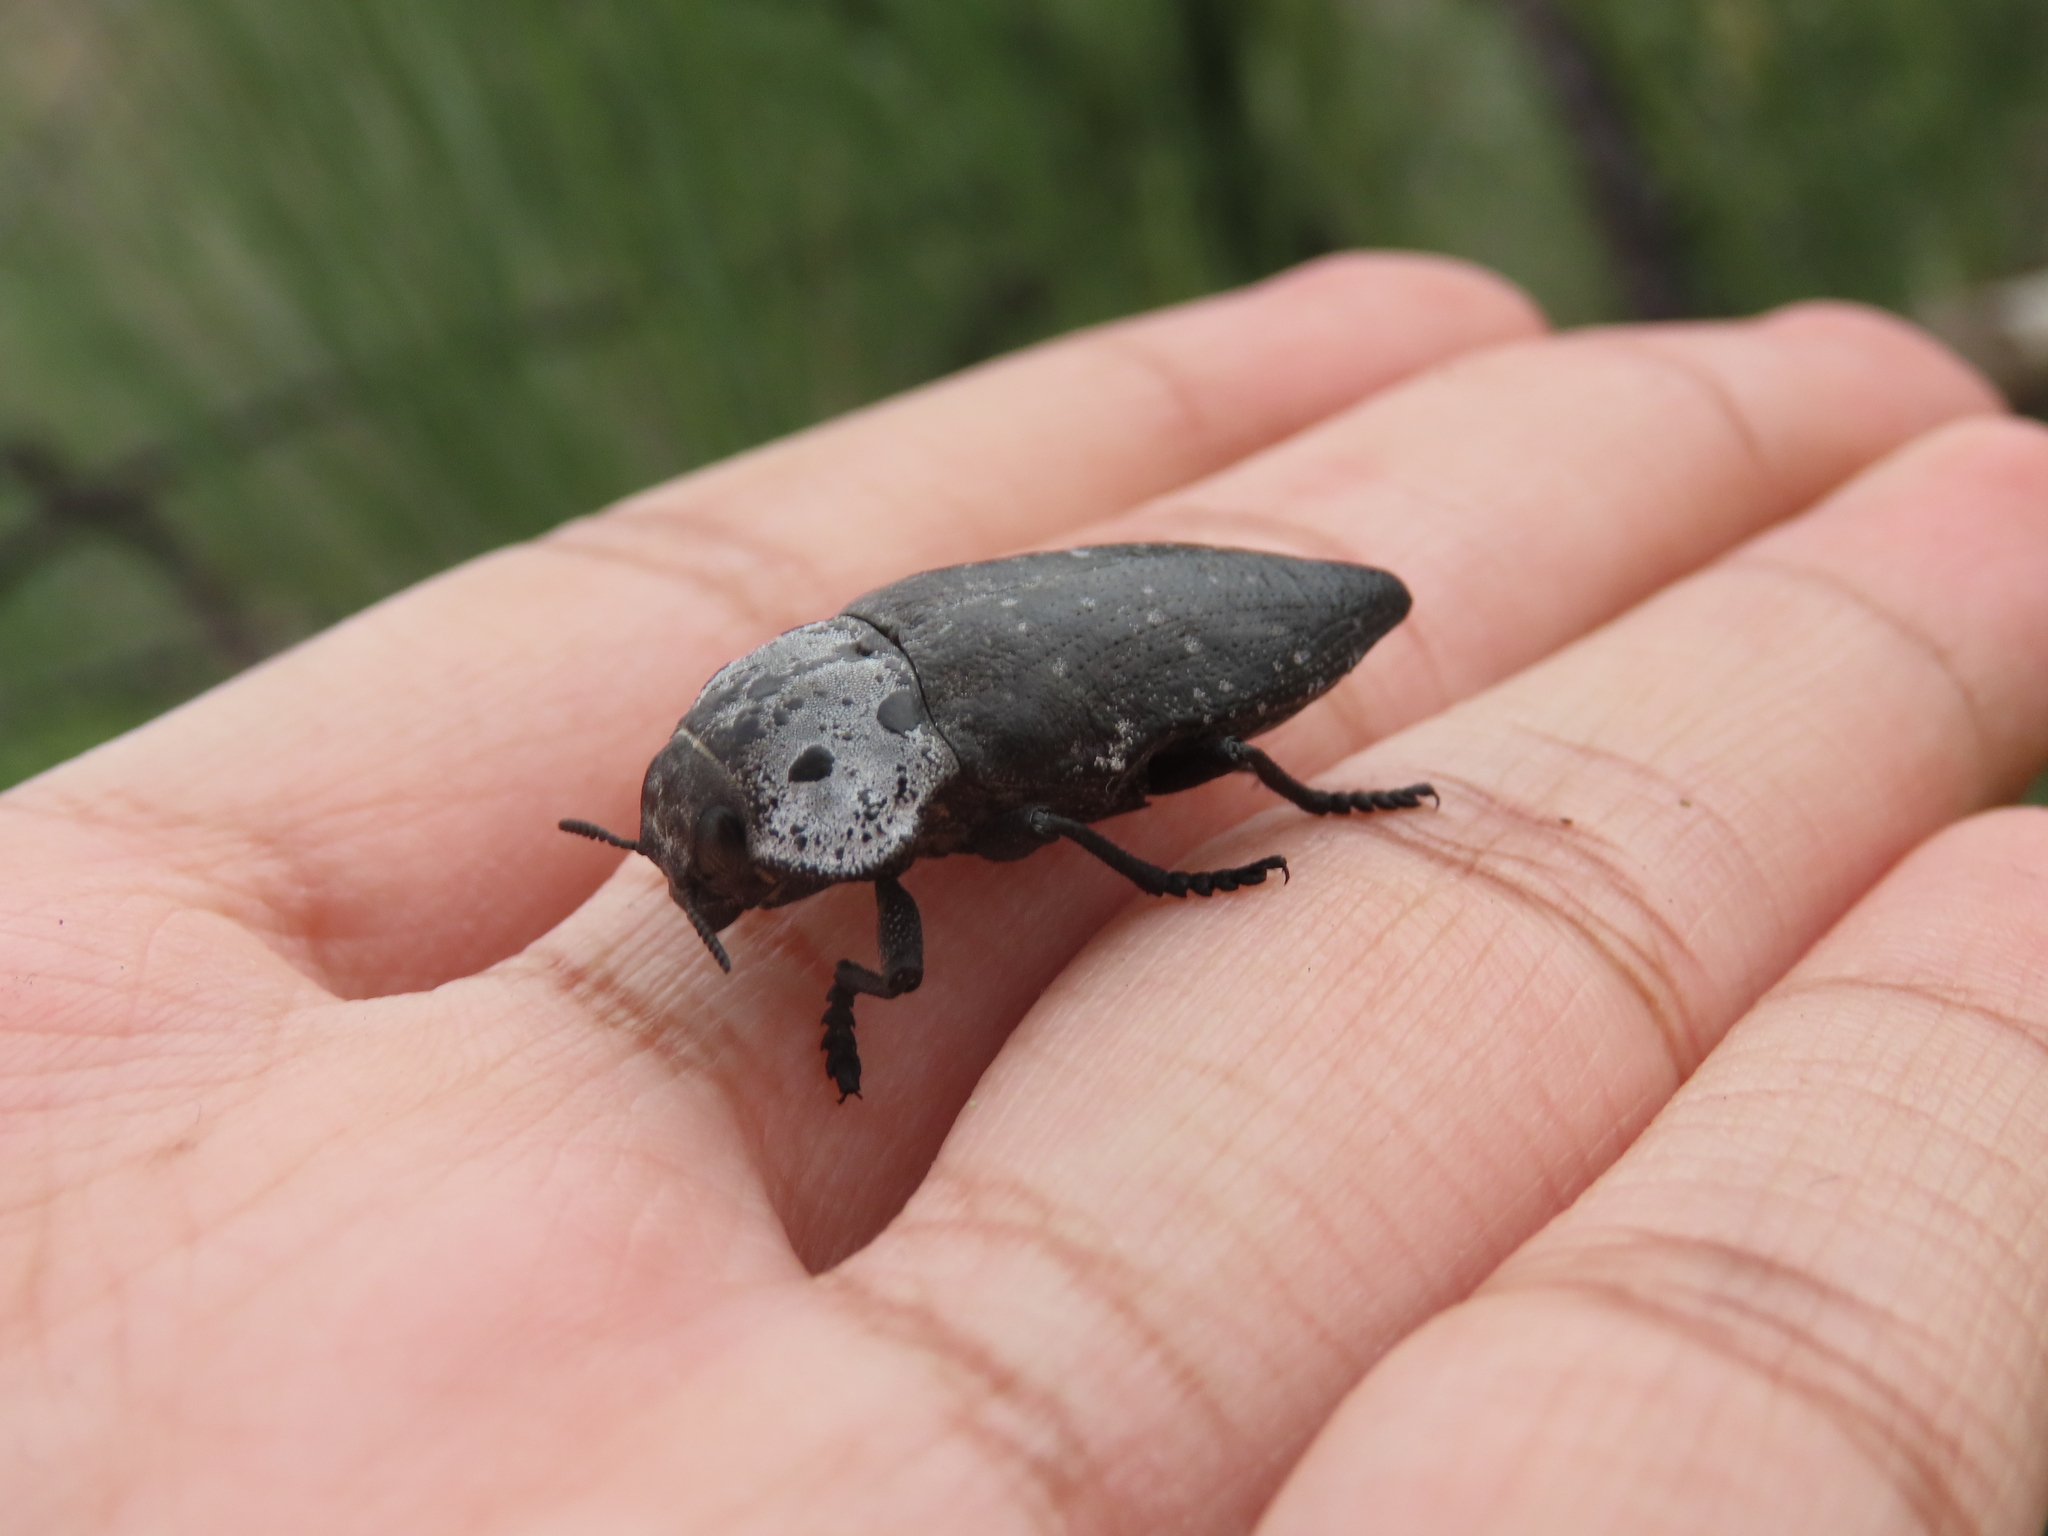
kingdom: Animalia
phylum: Arthropoda
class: Insecta
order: Coleoptera
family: Buprestidae
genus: Capnodis
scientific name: Capnodis tenebrionis
